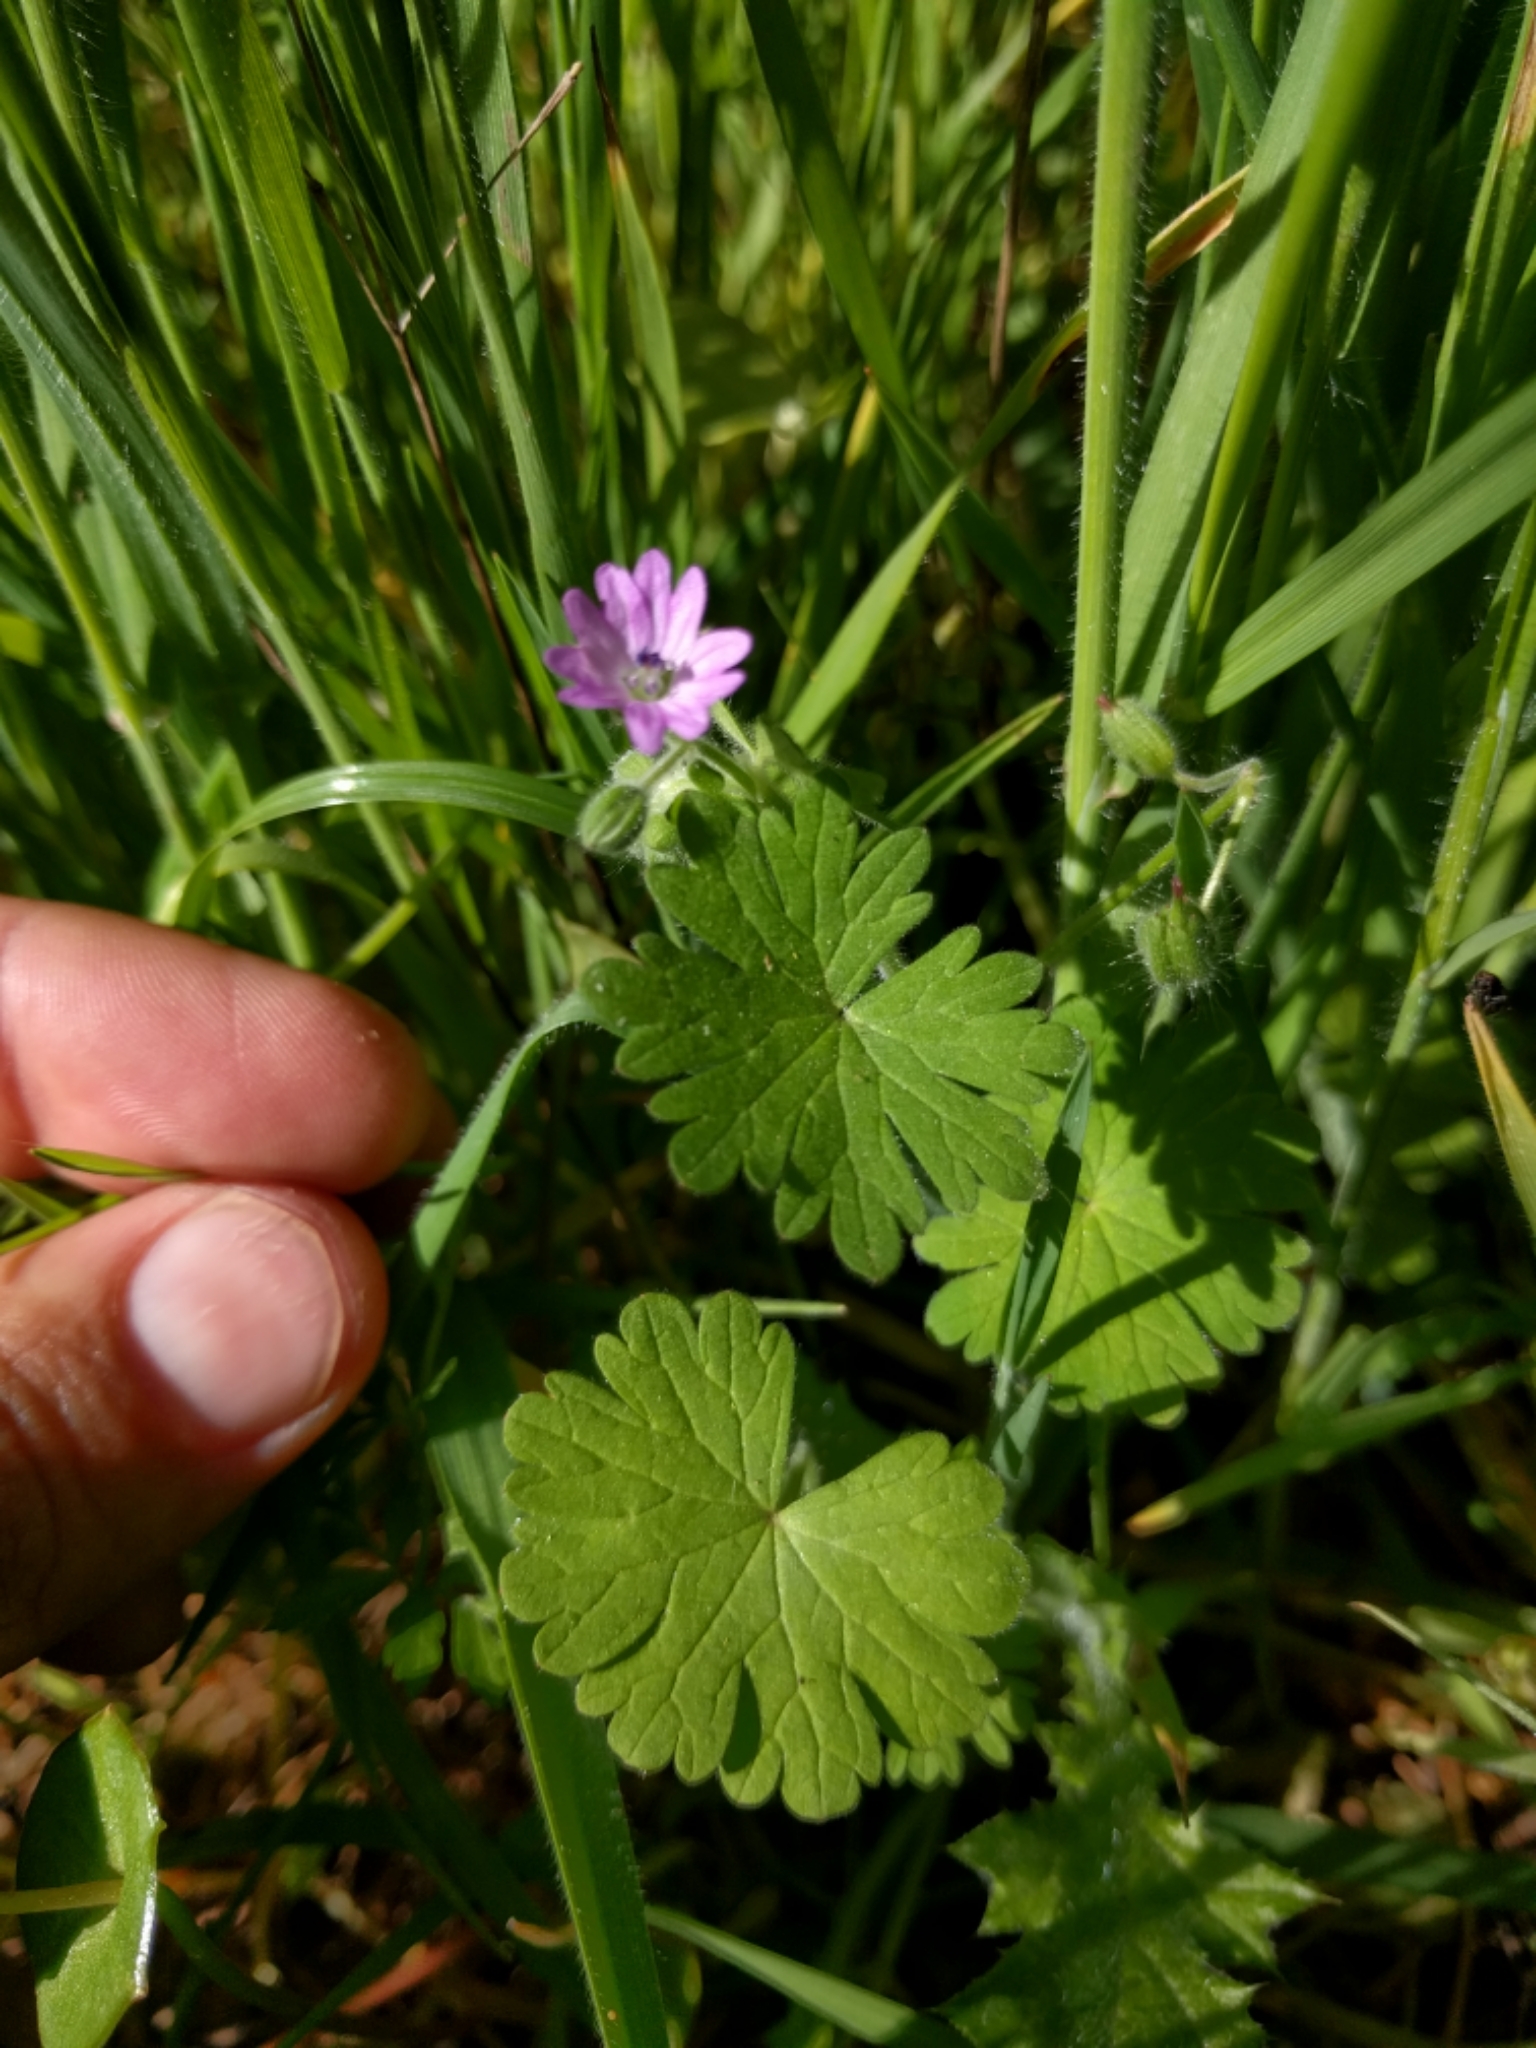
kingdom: Plantae
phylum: Tracheophyta
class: Magnoliopsida
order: Geraniales
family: Geraniaceae
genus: Geranium
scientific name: Geranium molle
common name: Dove's-foot crane's-bill
